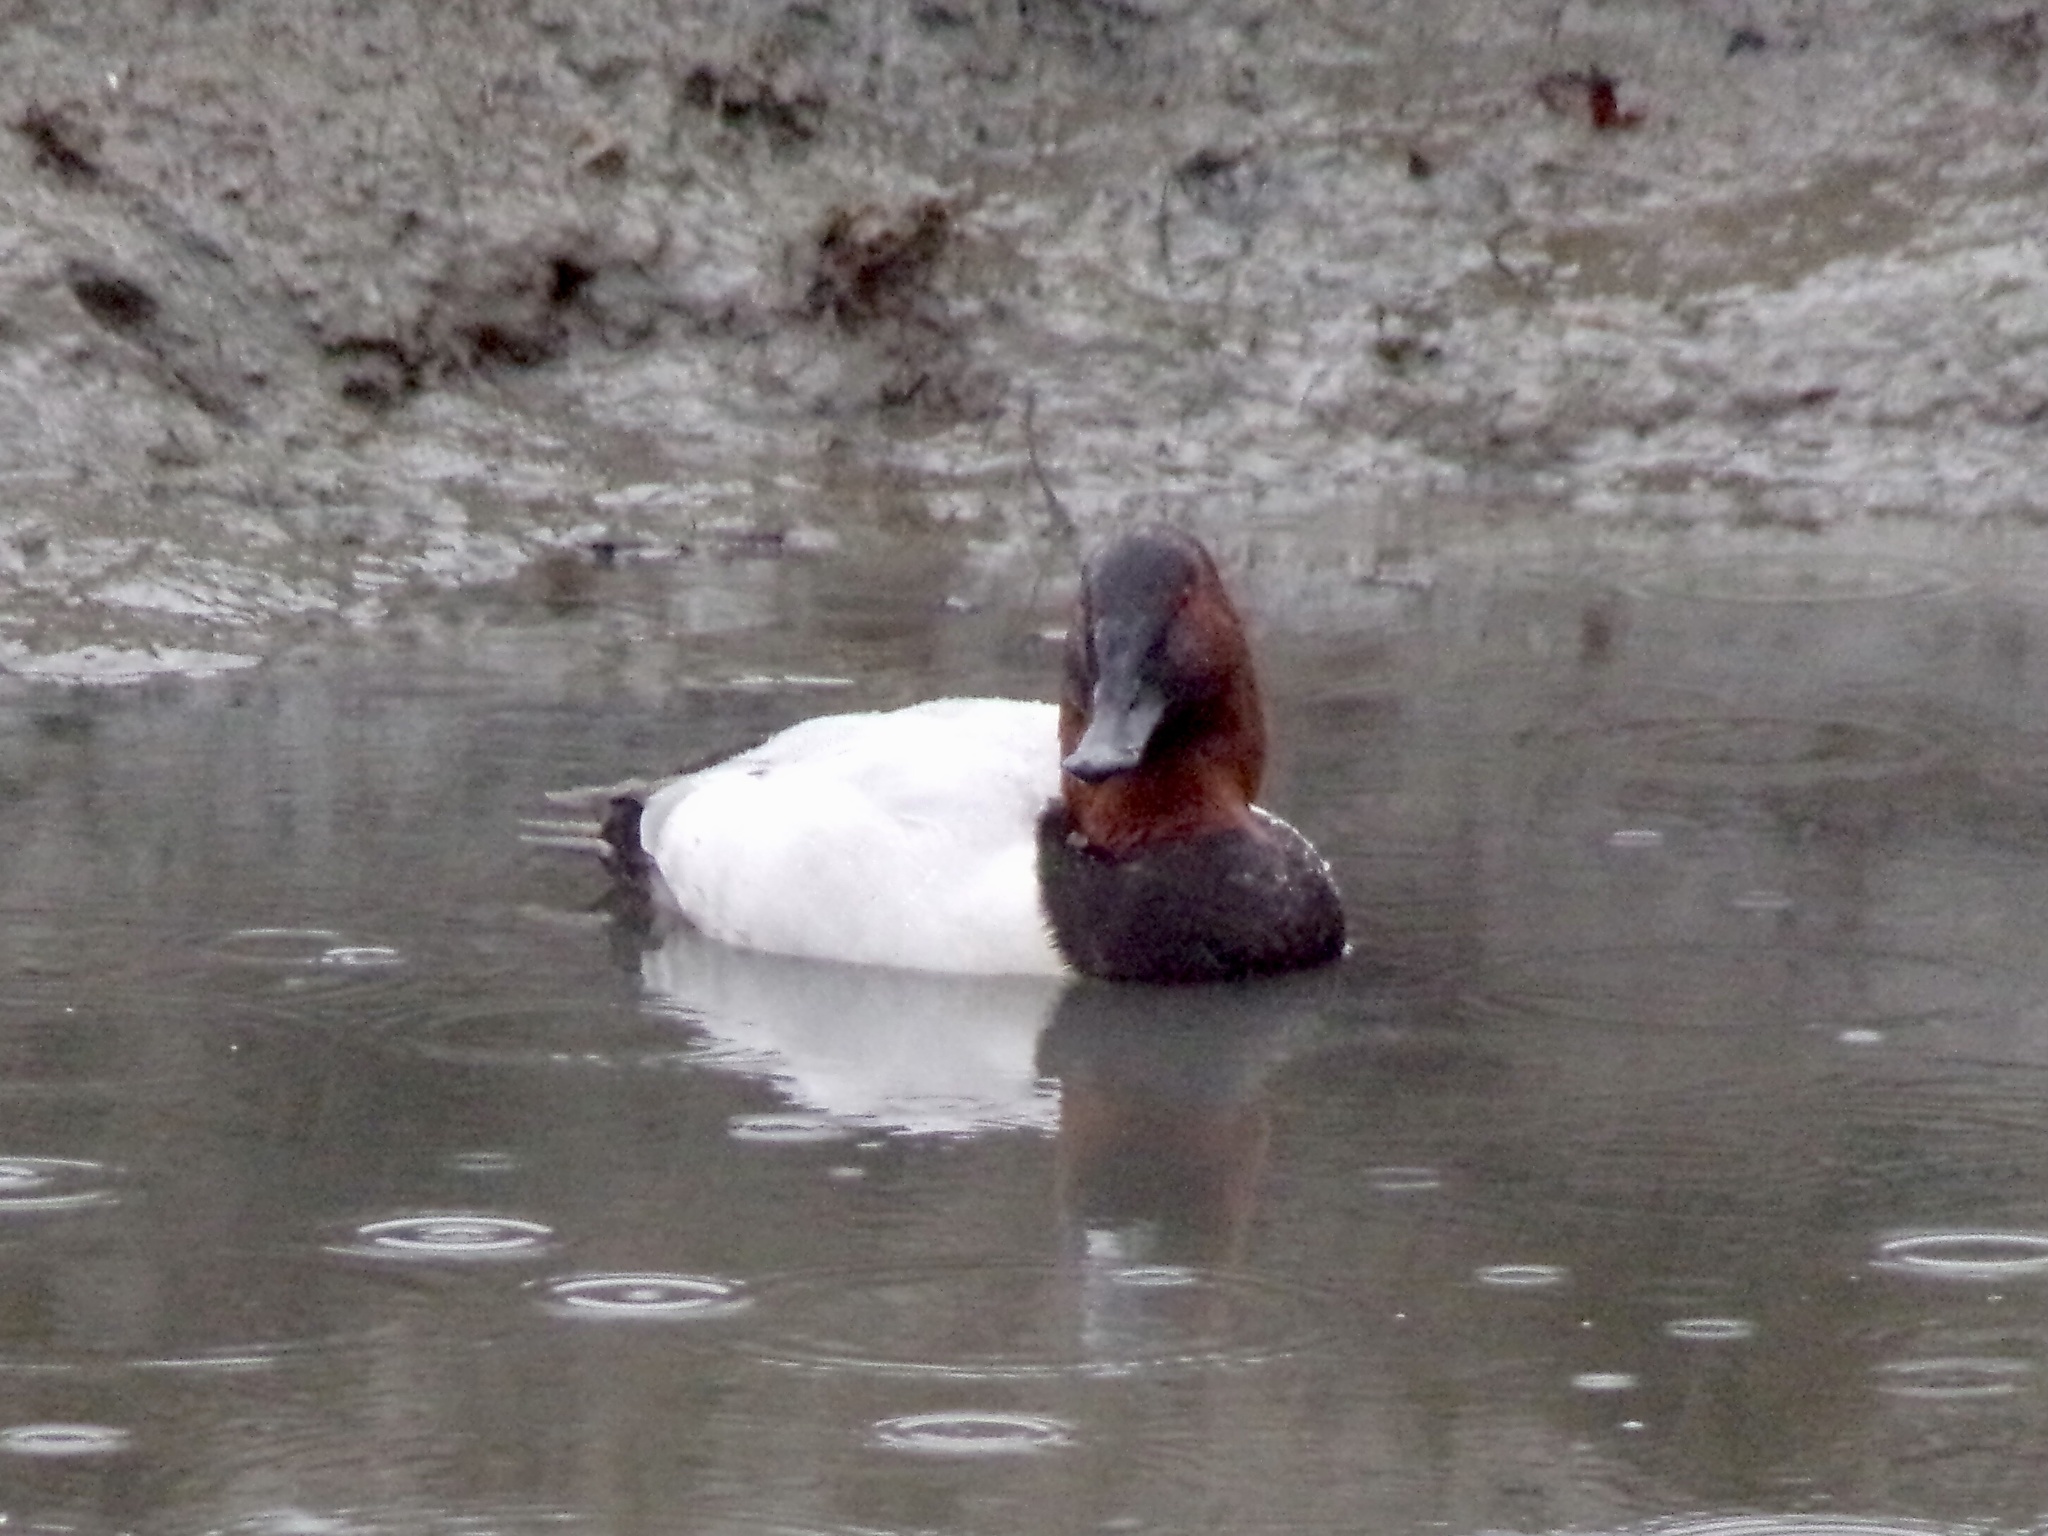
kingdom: Animalia
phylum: Chordata
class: Aves
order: Anseriformes
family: Anatidae
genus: Aythya
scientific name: Aythya valisineria
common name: Canvasback
